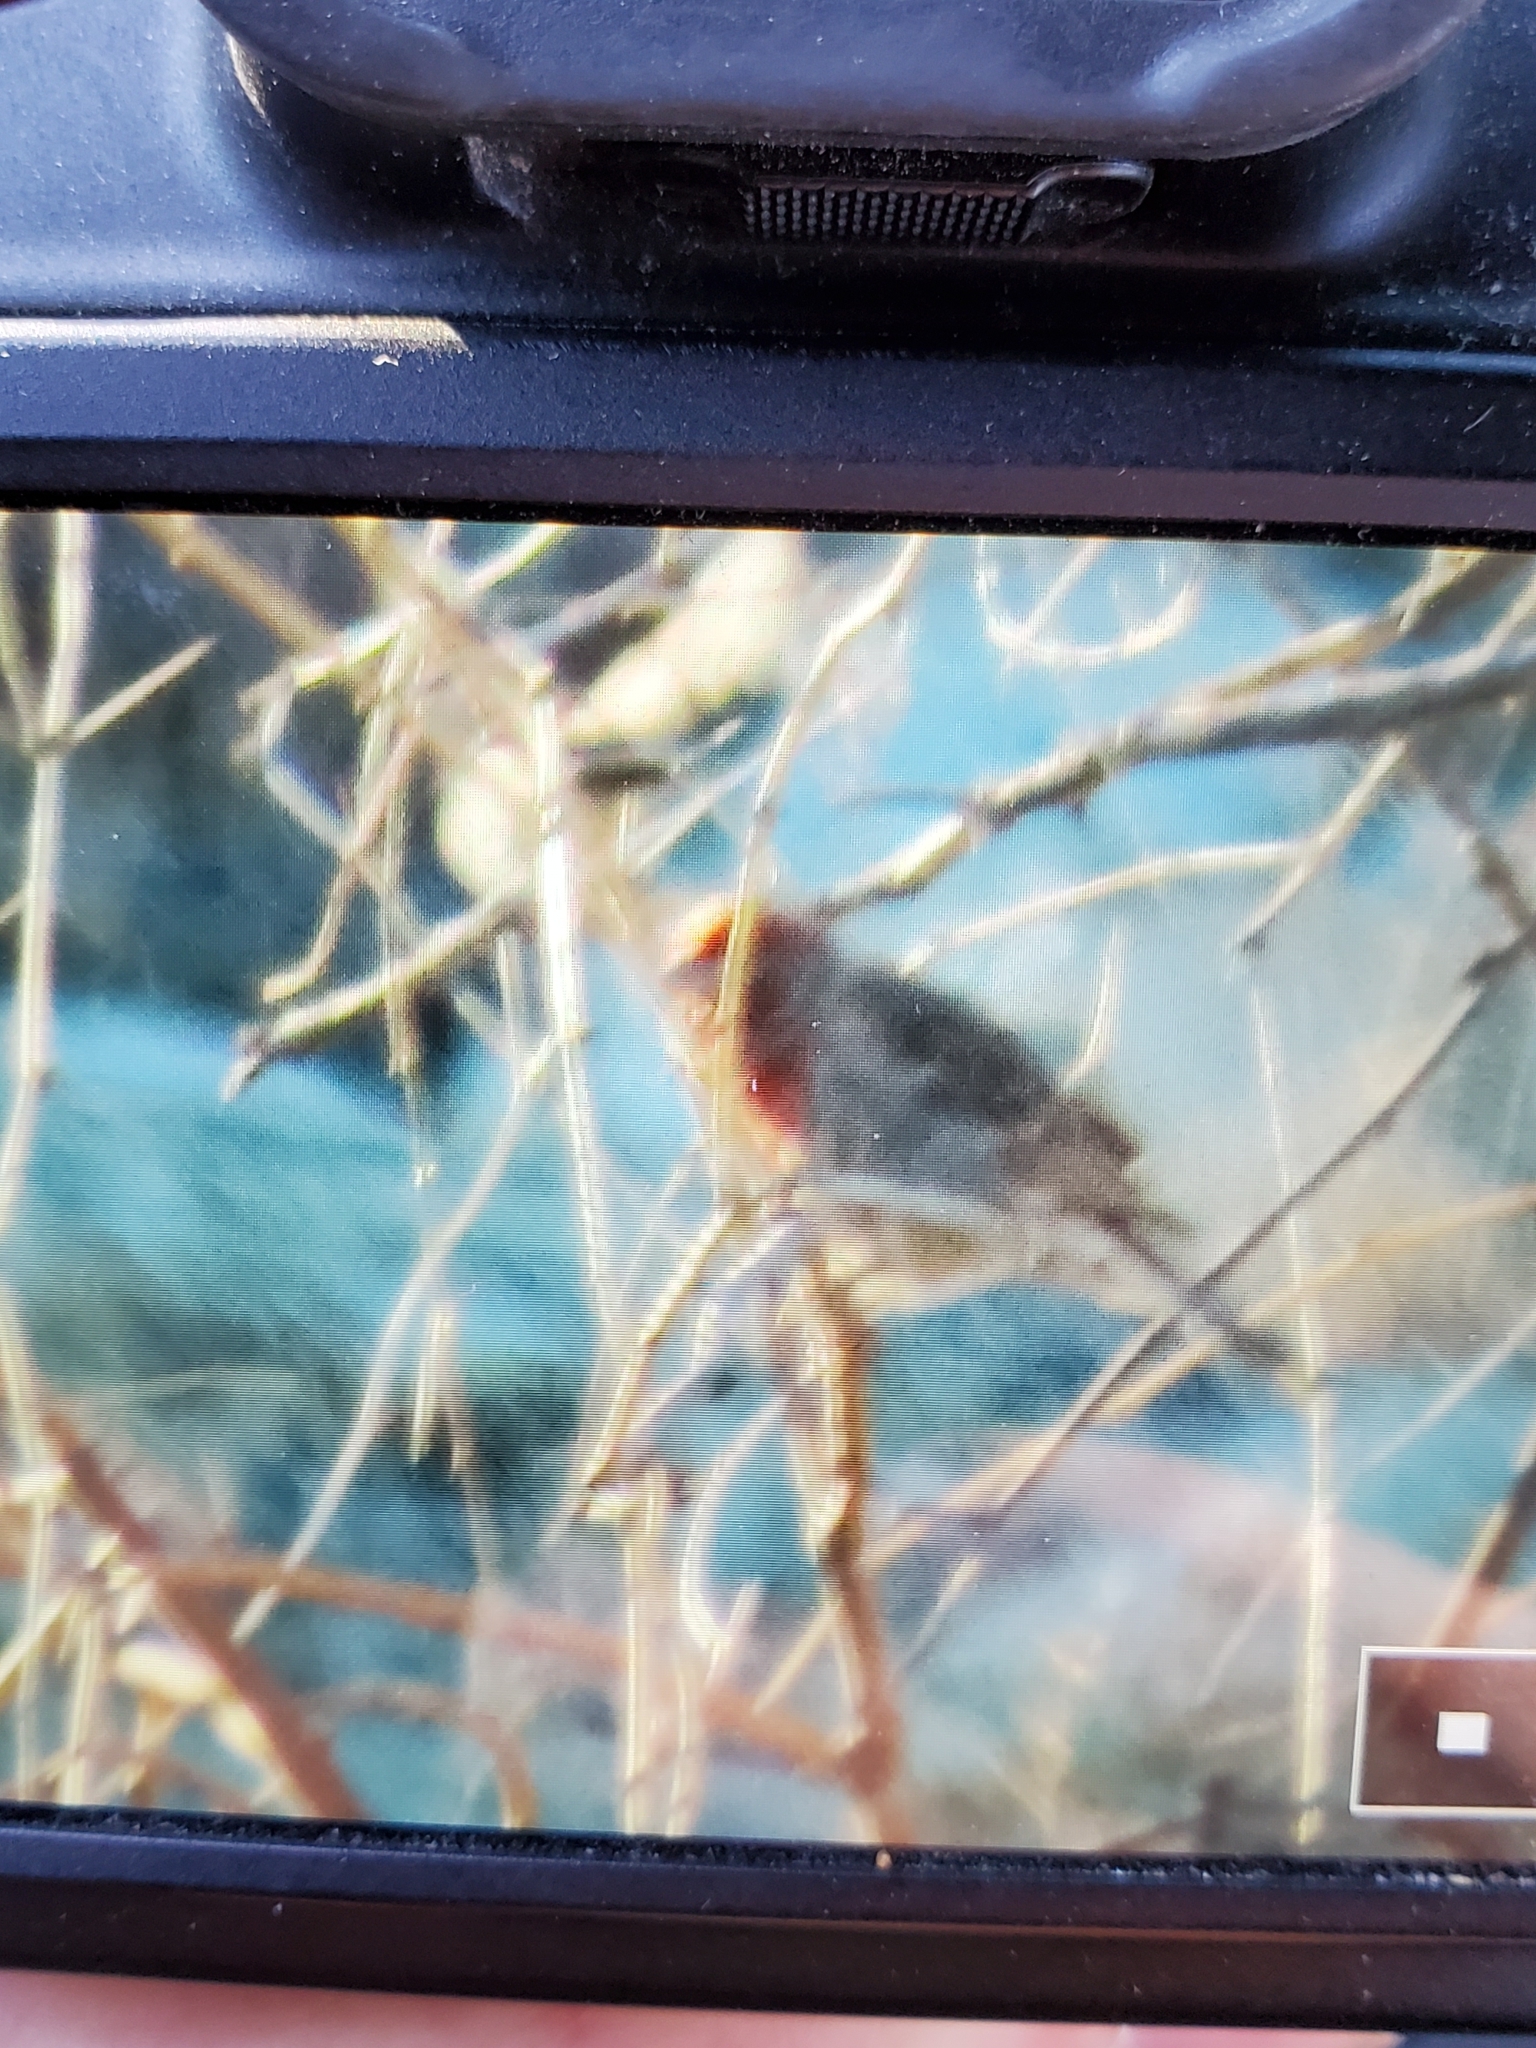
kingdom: Animalia
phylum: Chordata
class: Aves
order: Passeriformes
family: Fringillidae
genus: Haemorhous
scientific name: Haemorhous mexicanus
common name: House finch
